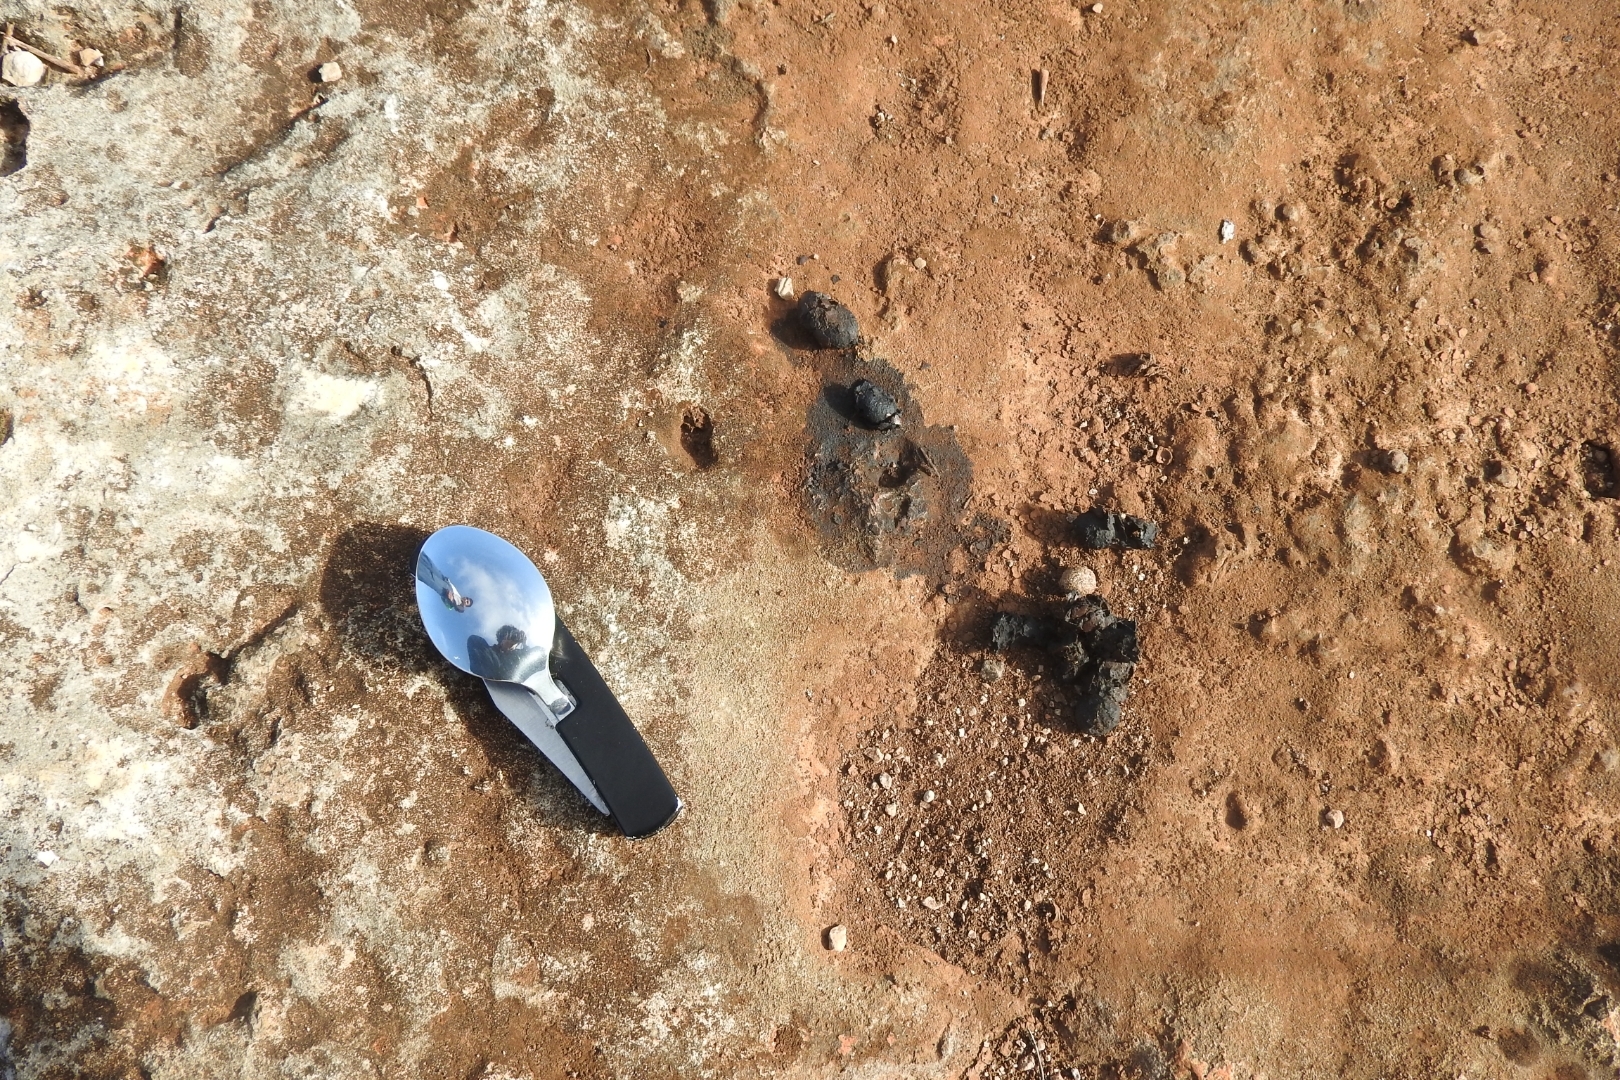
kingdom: Animalia
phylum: Chordata
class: Mammalia
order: Lagomorpha
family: Leporidae
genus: Sylvilagus
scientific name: Sylvilagus floridanus
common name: Eastern cottontail
